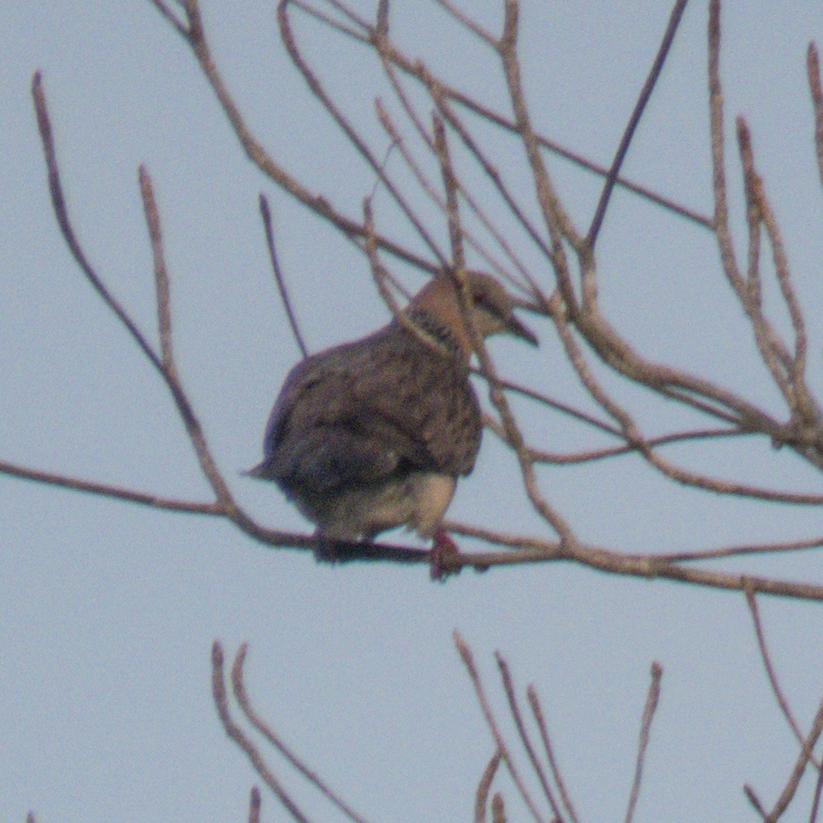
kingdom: Animalia
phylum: Chordata
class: Aves
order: Columbiformes
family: Columbidae
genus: Spilopelia
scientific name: Spilopelia chinensis
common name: Spotted dove
